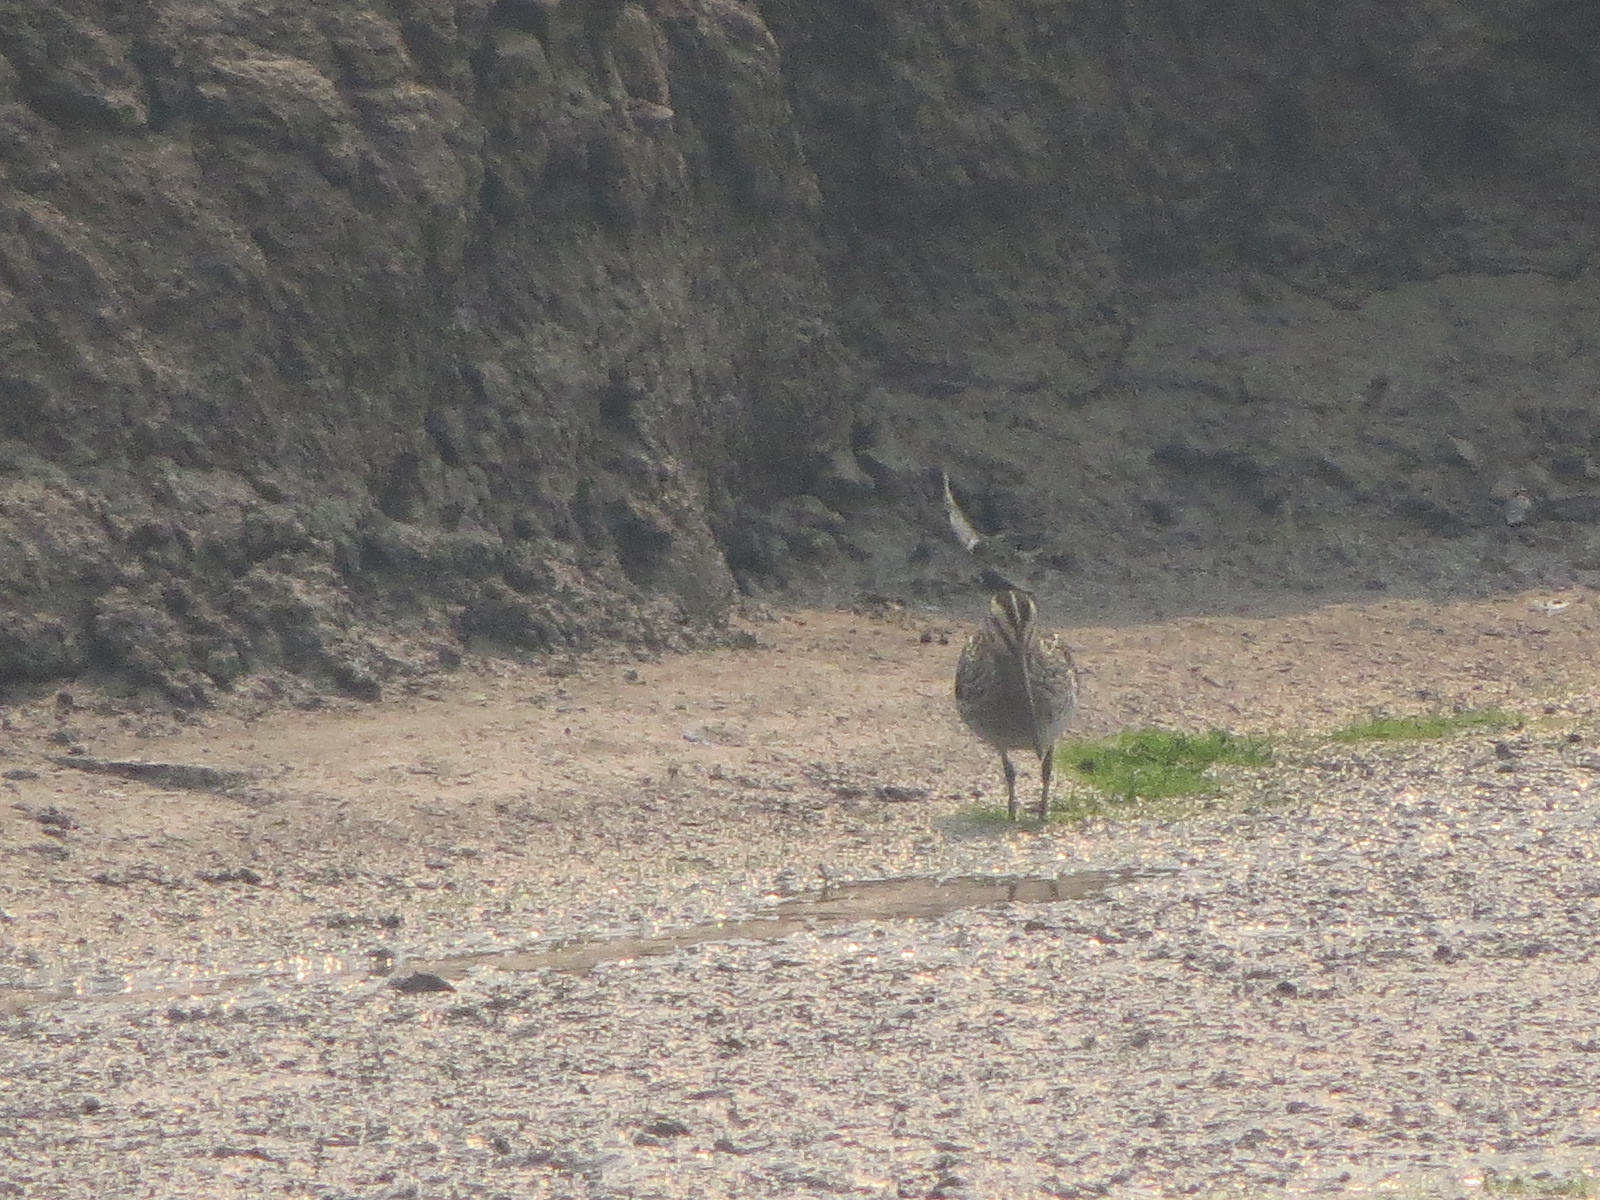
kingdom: Animalia
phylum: Chordata
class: Aves
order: Charadriiformes
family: Scolopacidae
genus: Gallinago
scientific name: Gallinago delicata
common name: Wilson's snipe
